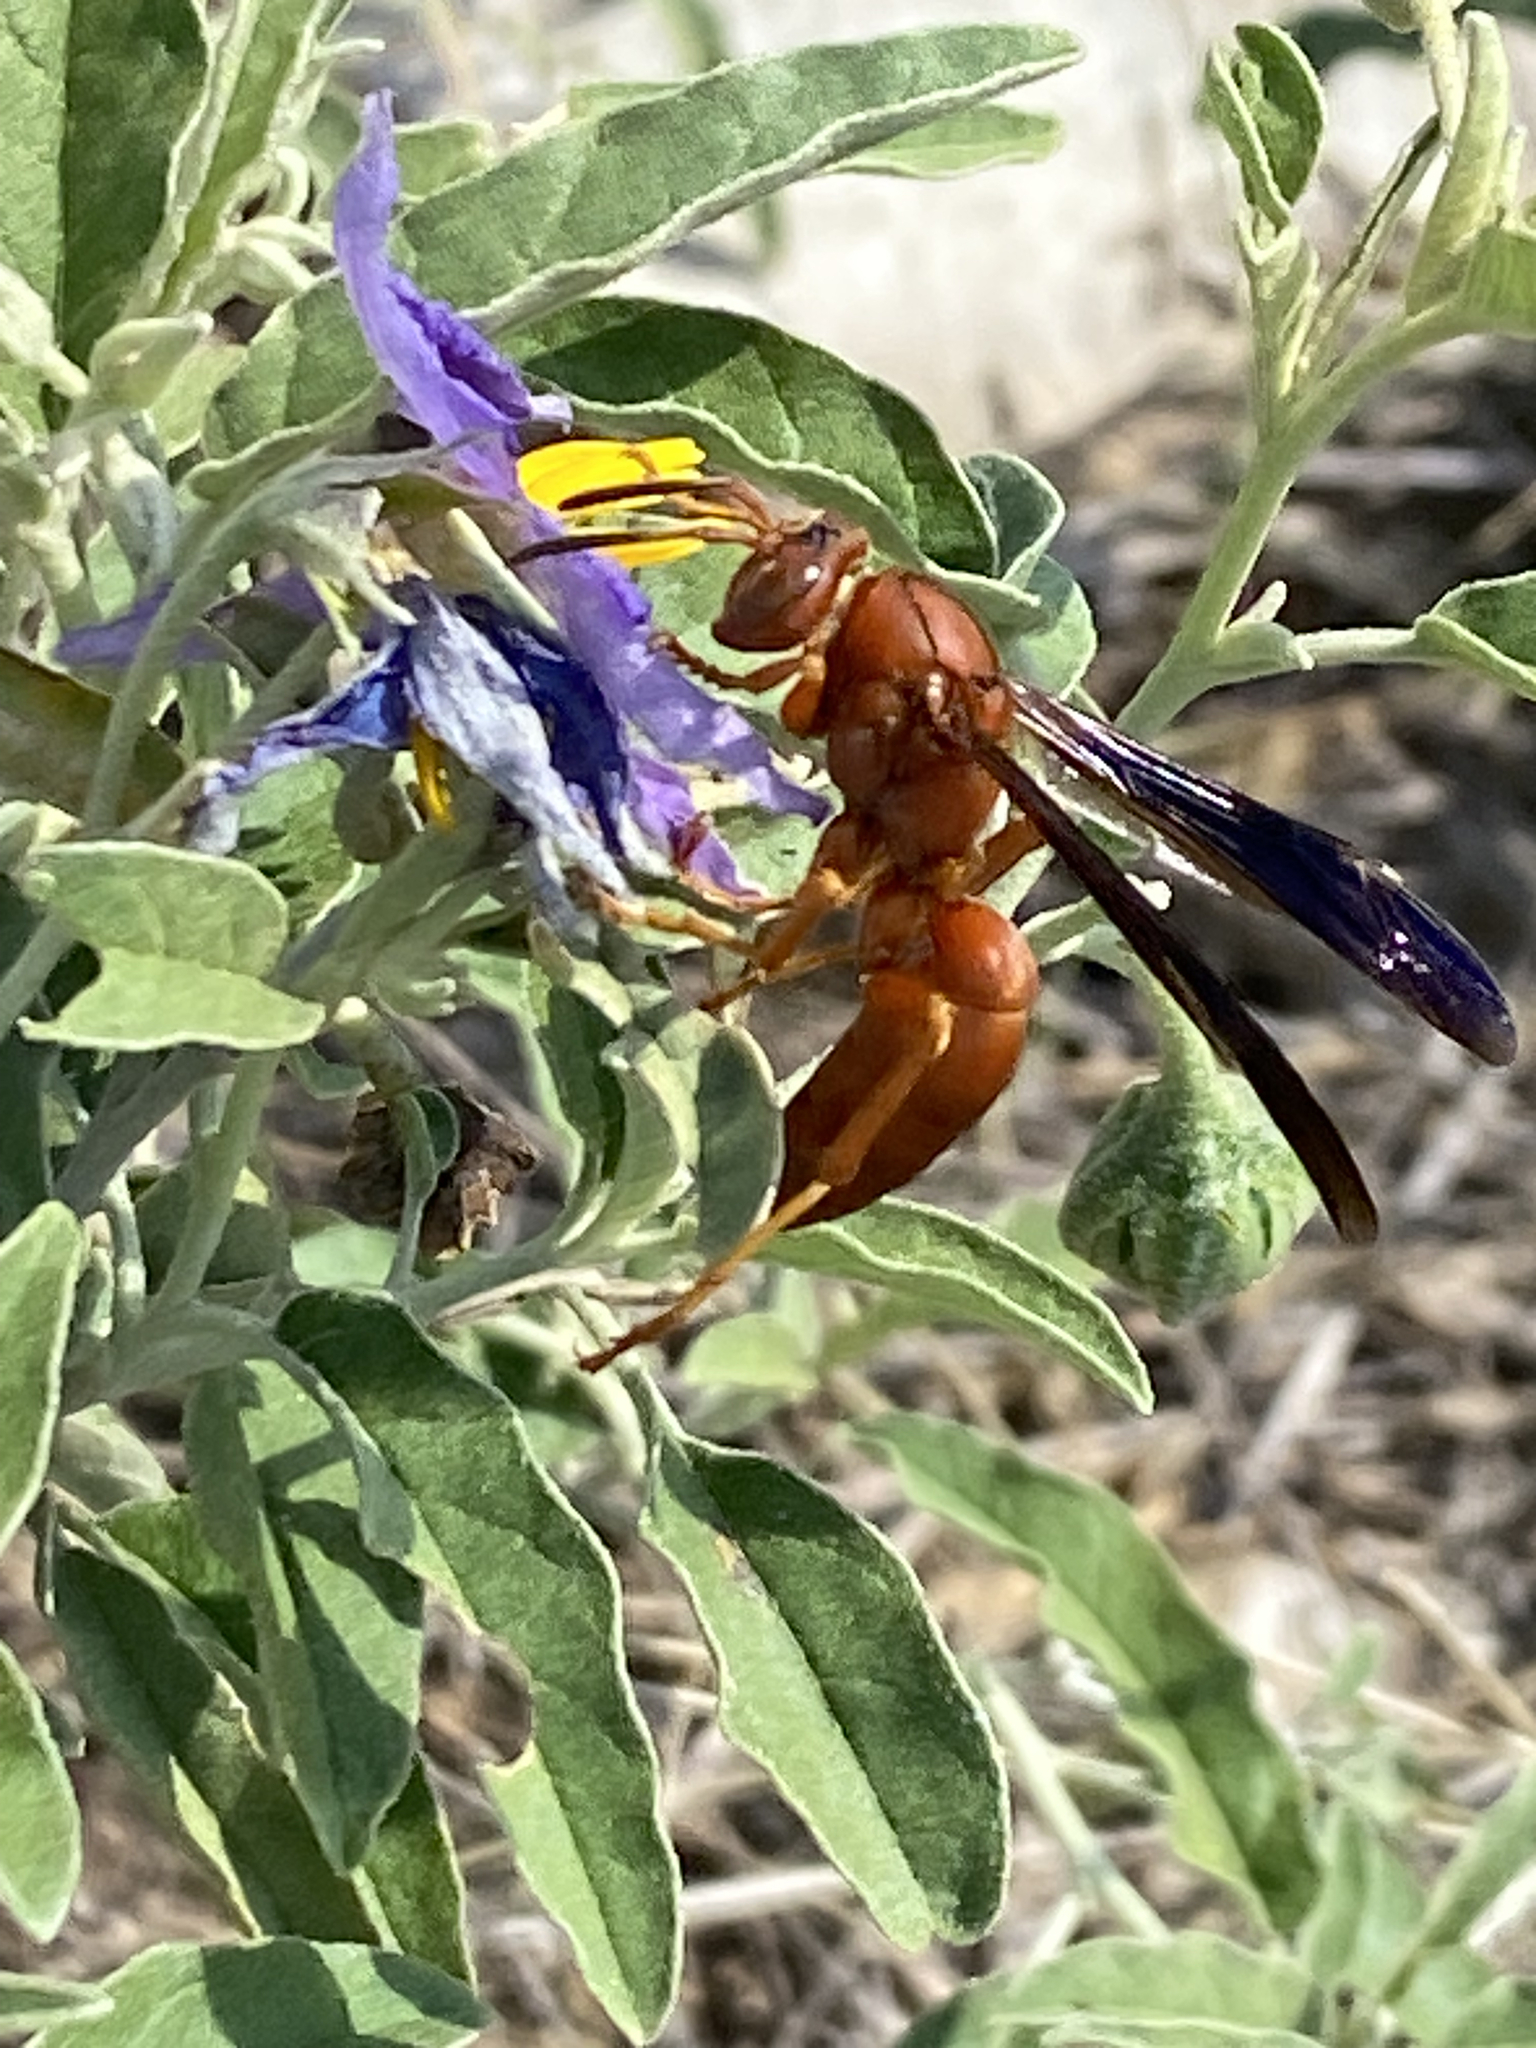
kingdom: Animalia
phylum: Arthropoda
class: Insecta
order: Hymenoptera
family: Vespidae
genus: Fuscopolistes
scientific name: Fuscopolistes
